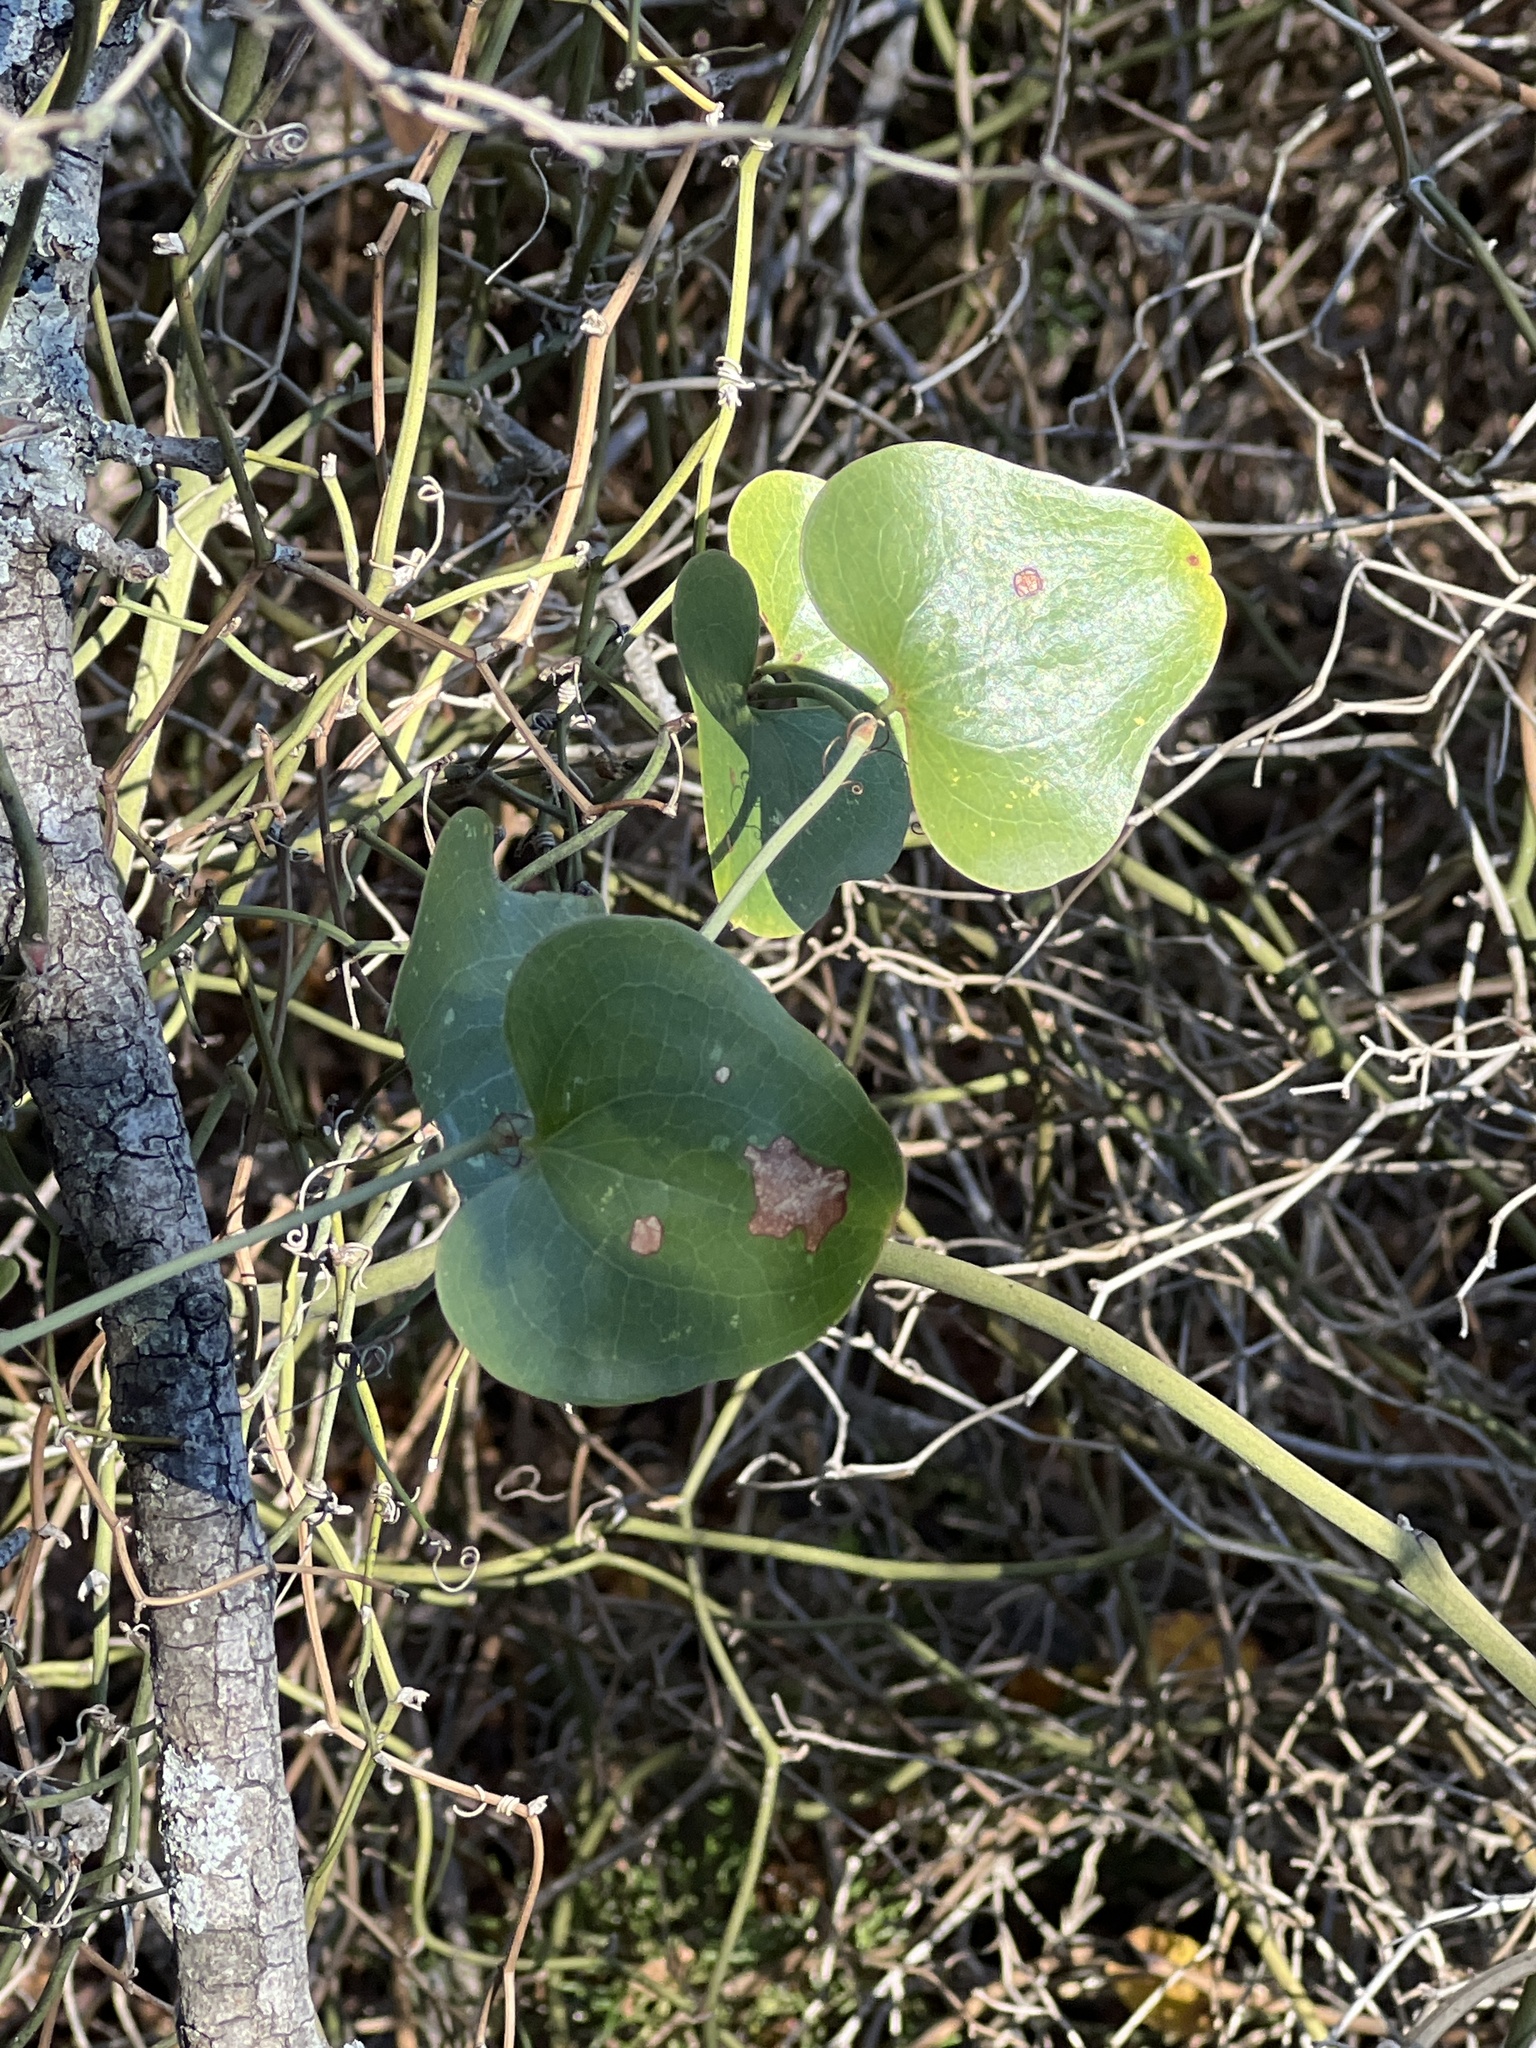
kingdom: Plantae
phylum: Tracheophyta
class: Liliopsida
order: Liliales
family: Smilacaceae
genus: Smilax
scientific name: Smilax bona-nox
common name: Catbrier
